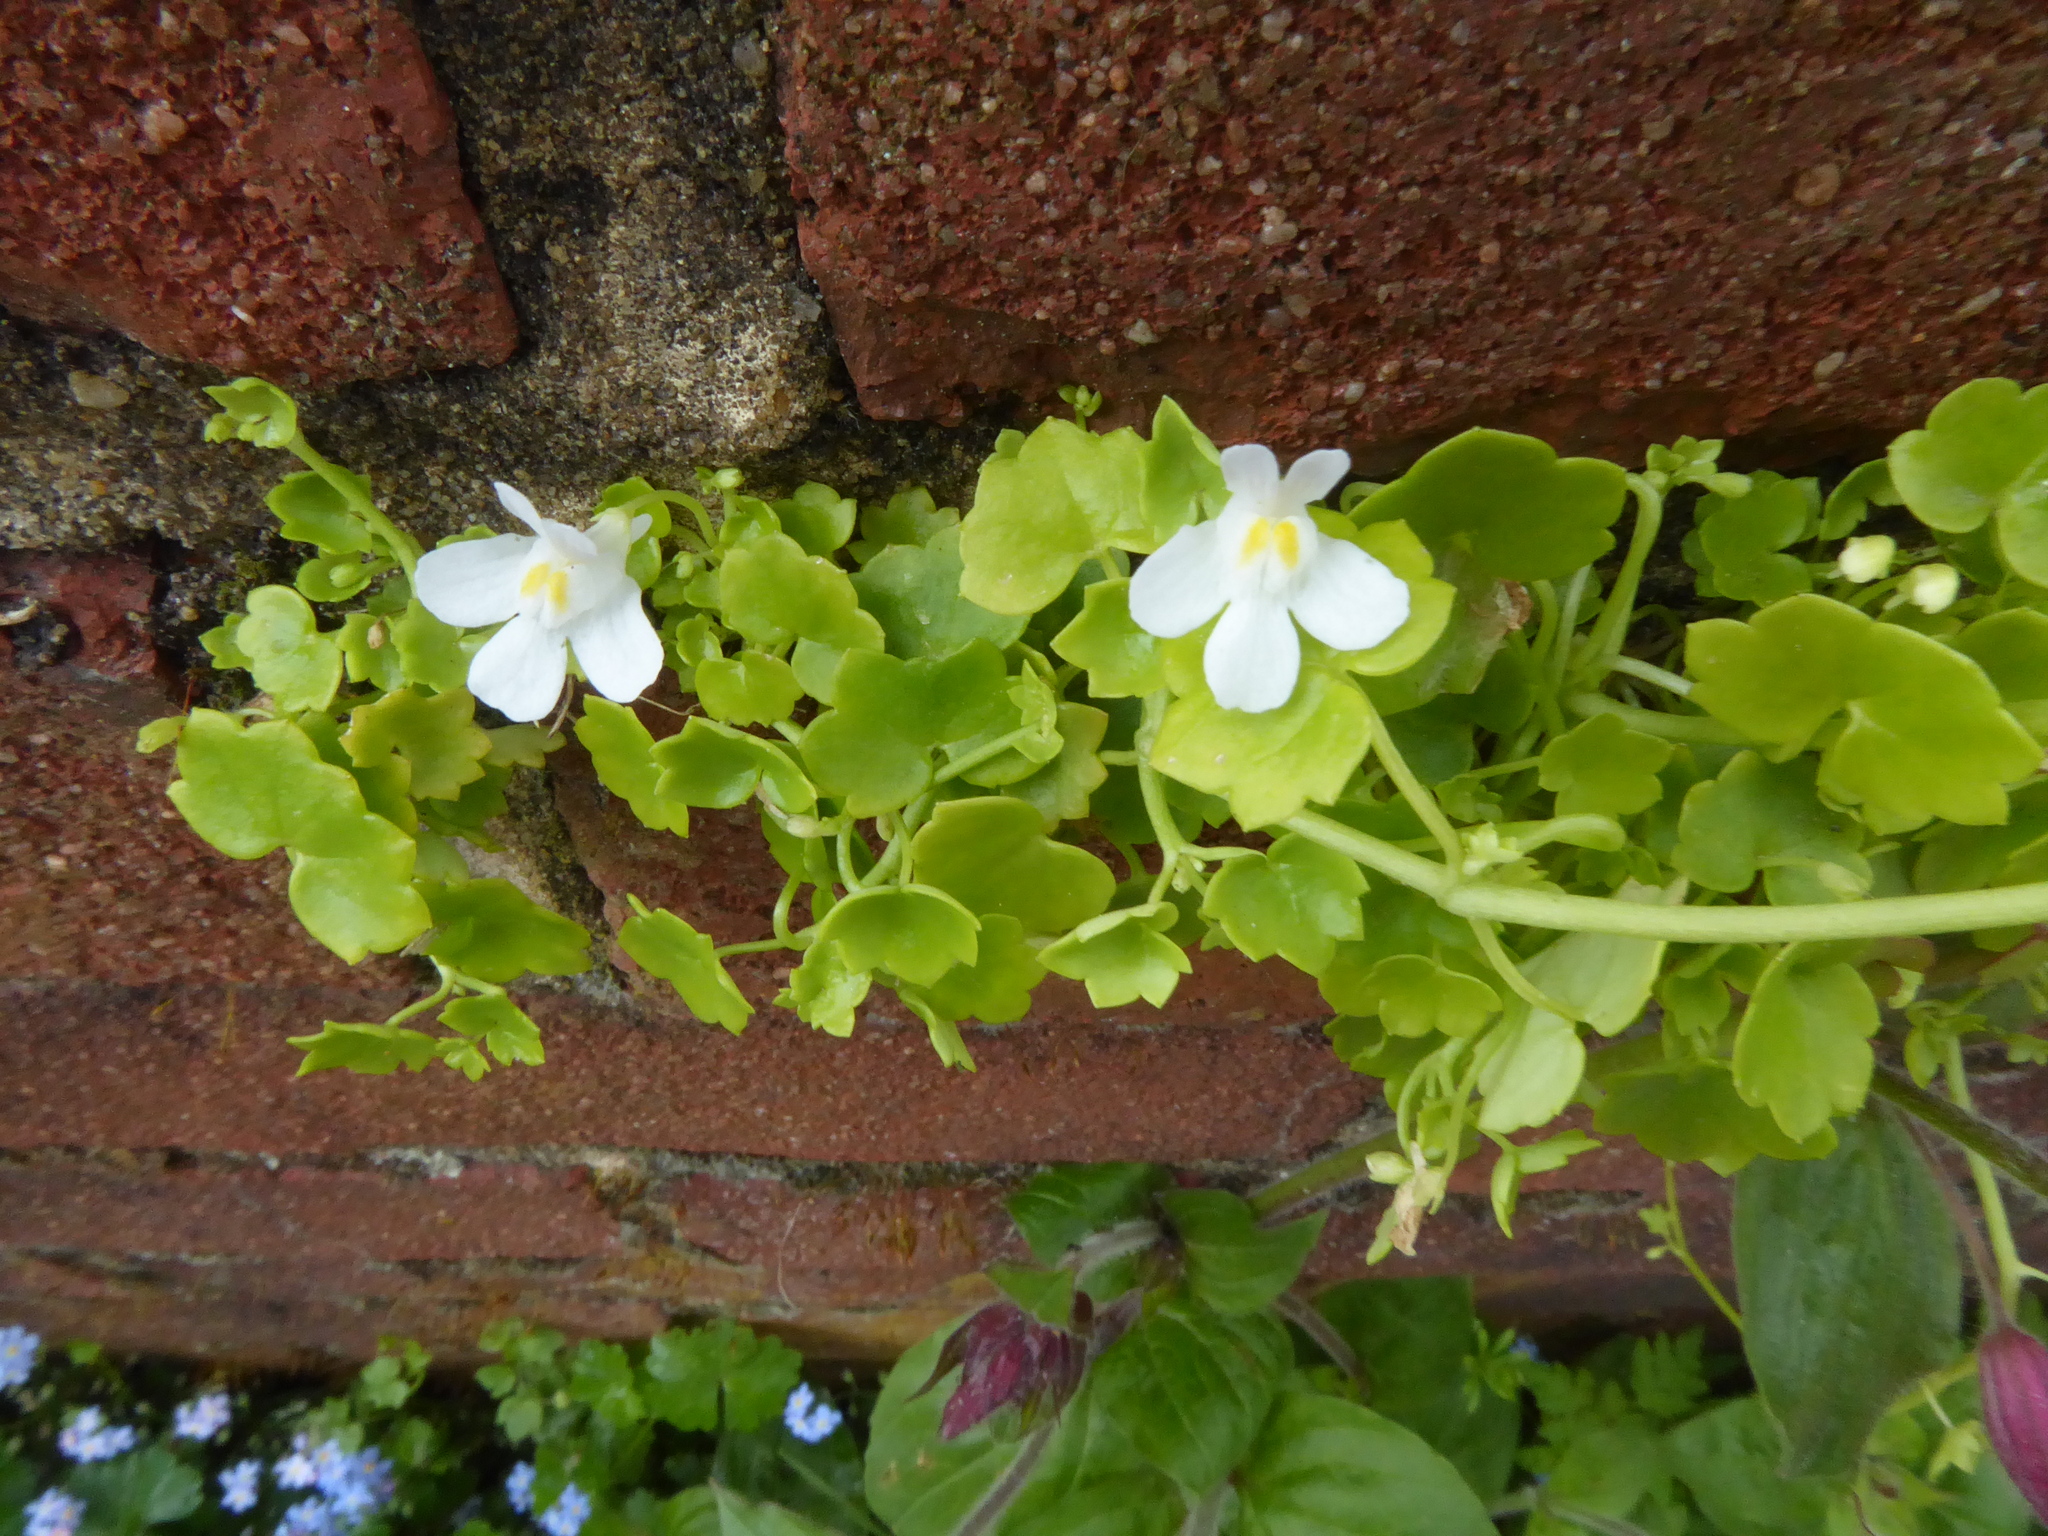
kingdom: Plantae
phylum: Tracheophyta
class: Magnoliopsida
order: Lamiales
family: Plantaginaceae
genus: Cymbalaria
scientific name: Cymbalaria muralis
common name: Ivy-leaved toadflax
